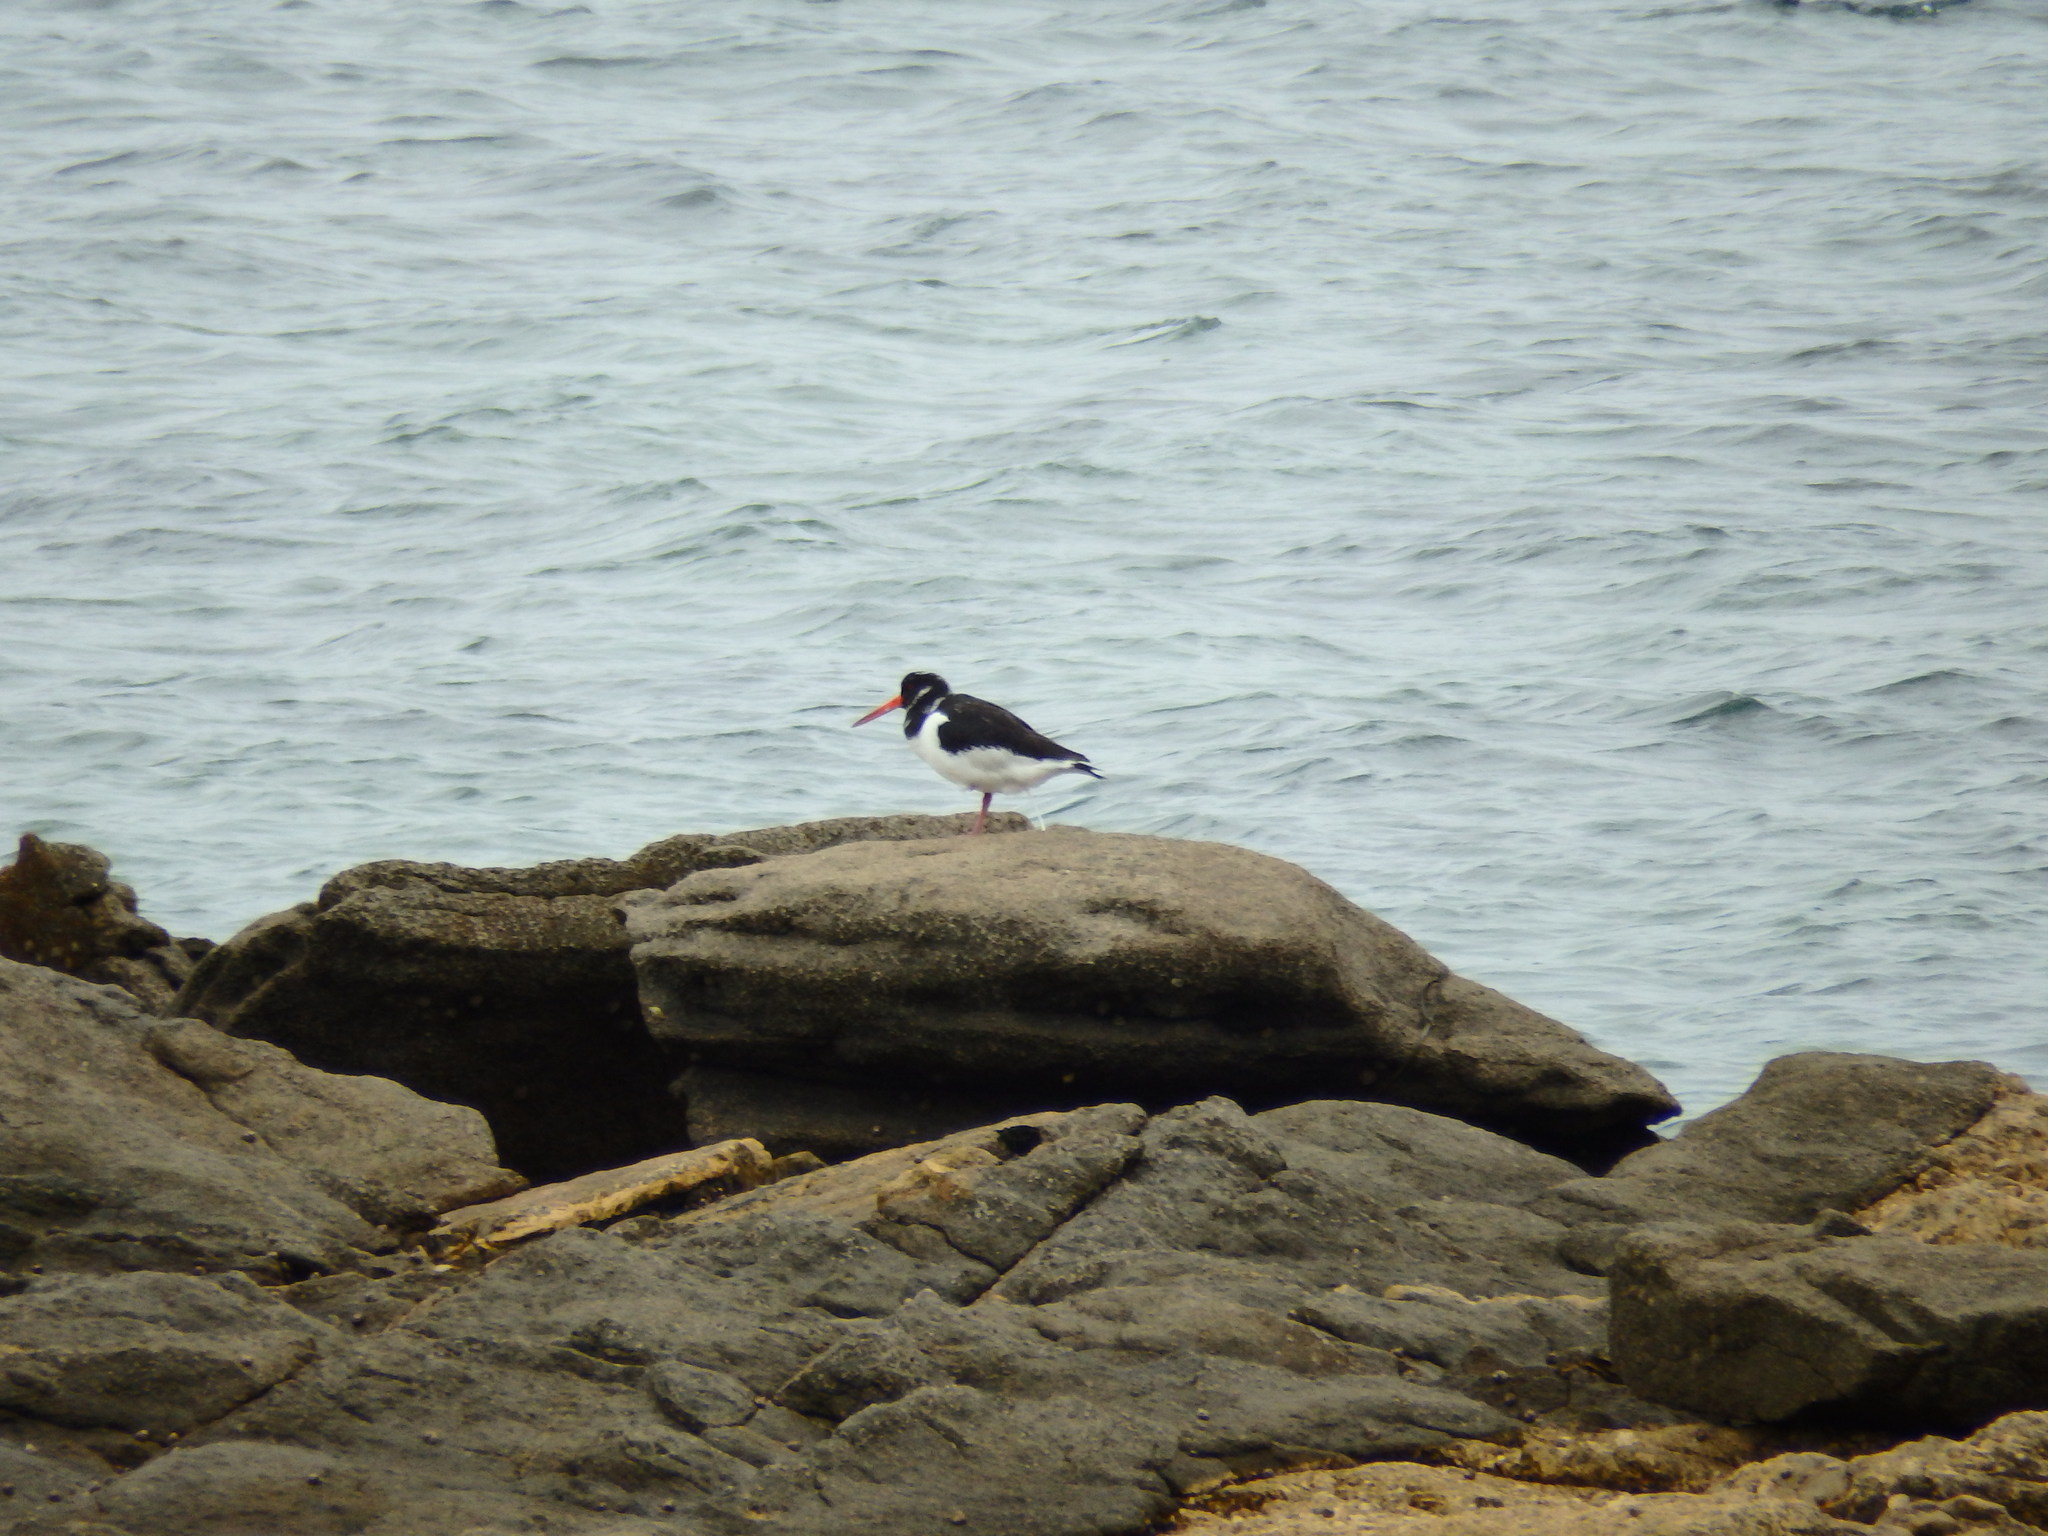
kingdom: Animalia
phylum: Chordata
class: Aves
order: Charadriiformes
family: Haematopodidae
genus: Haematopus
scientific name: Haematopus ostralegus
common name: Eurasian oystercatcher
